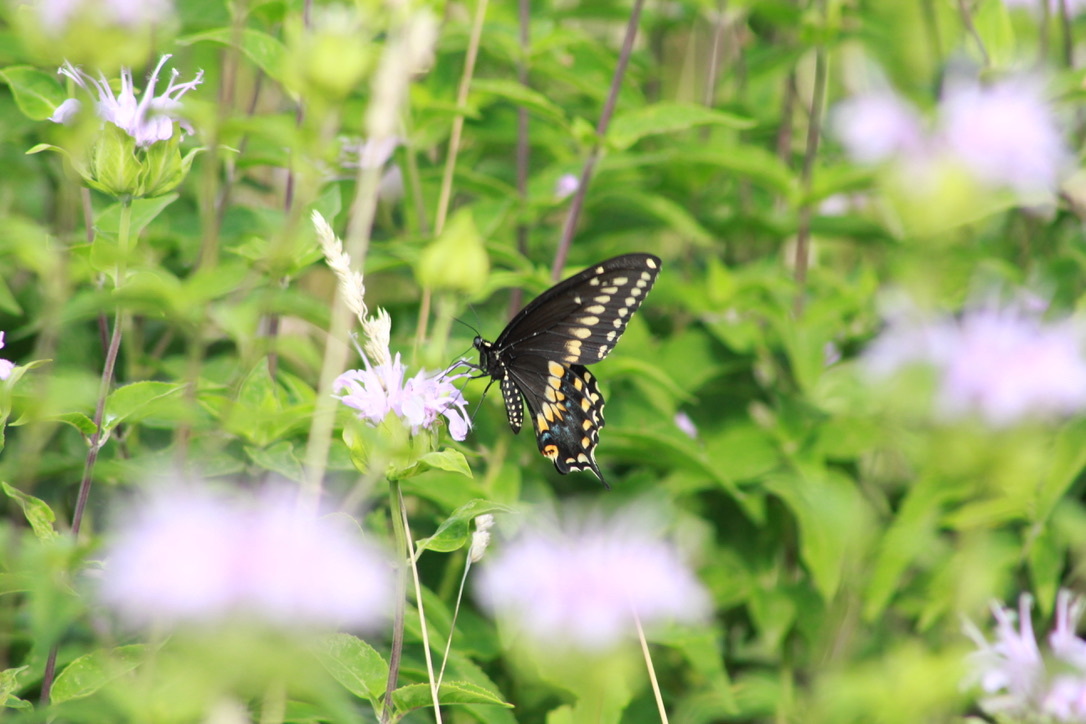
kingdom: Animalia
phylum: Arthropoda
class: Insecta
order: Lepidoptera
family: Papilionidae
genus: Papilio
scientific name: Papilio polyxenes
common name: Black swallowtail
